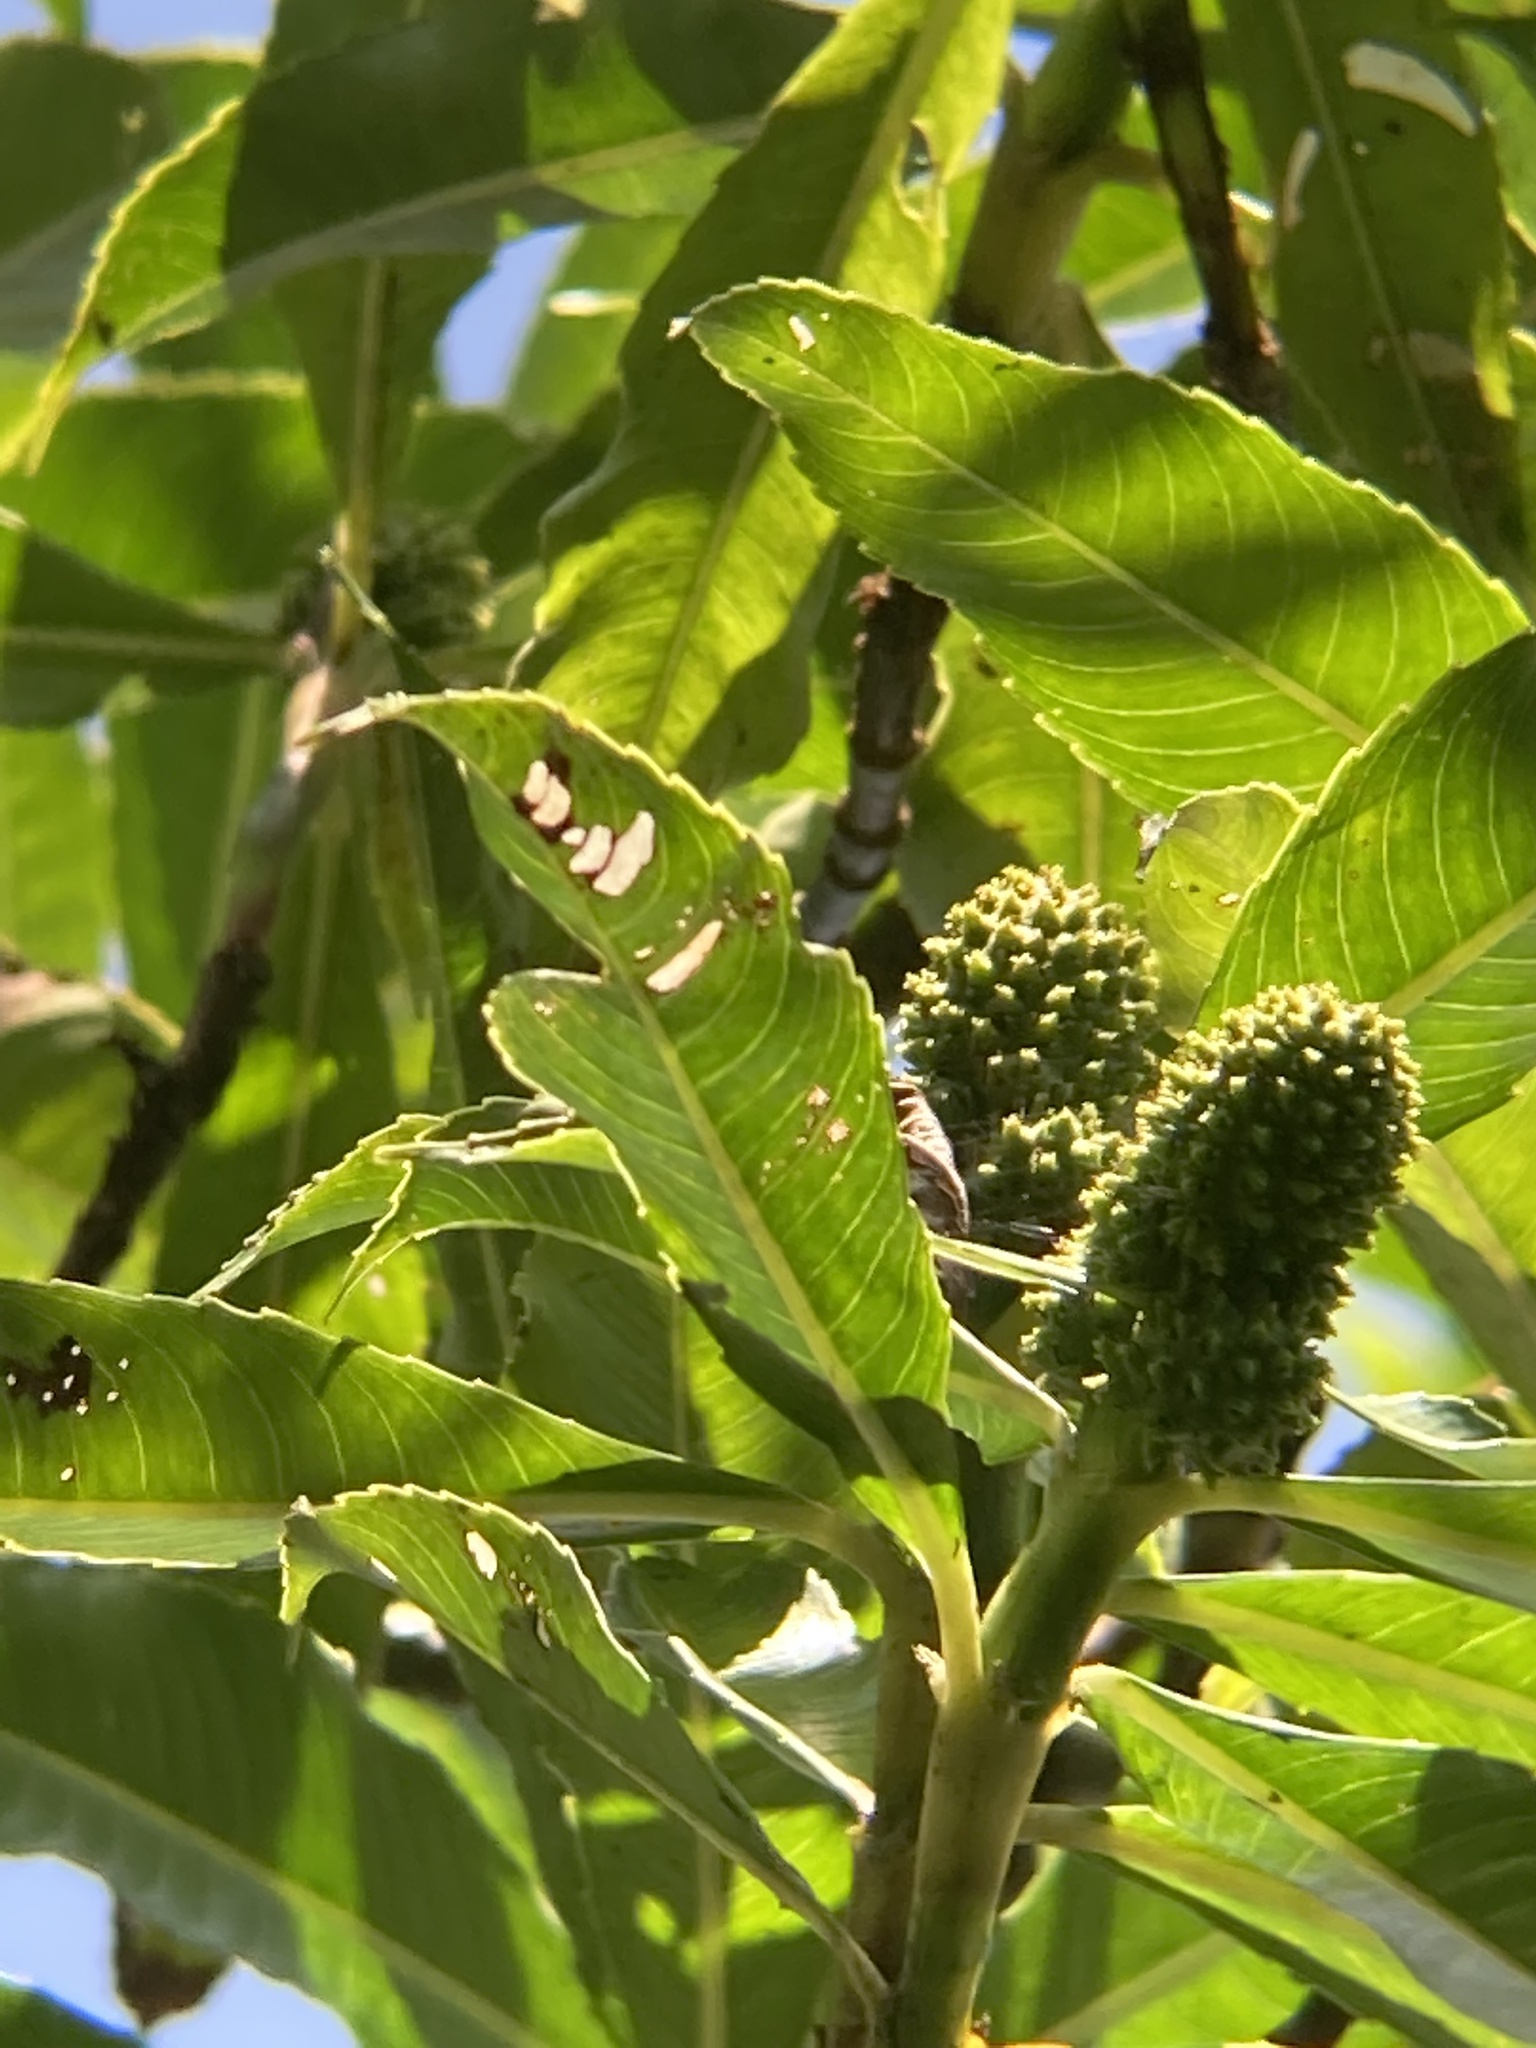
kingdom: Plantae
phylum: Tracheophyta
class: Magnoliopsida
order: Chloranthales
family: Chloranthaceae
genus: Hedyosmum
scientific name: Hedyosmum mexicanum
